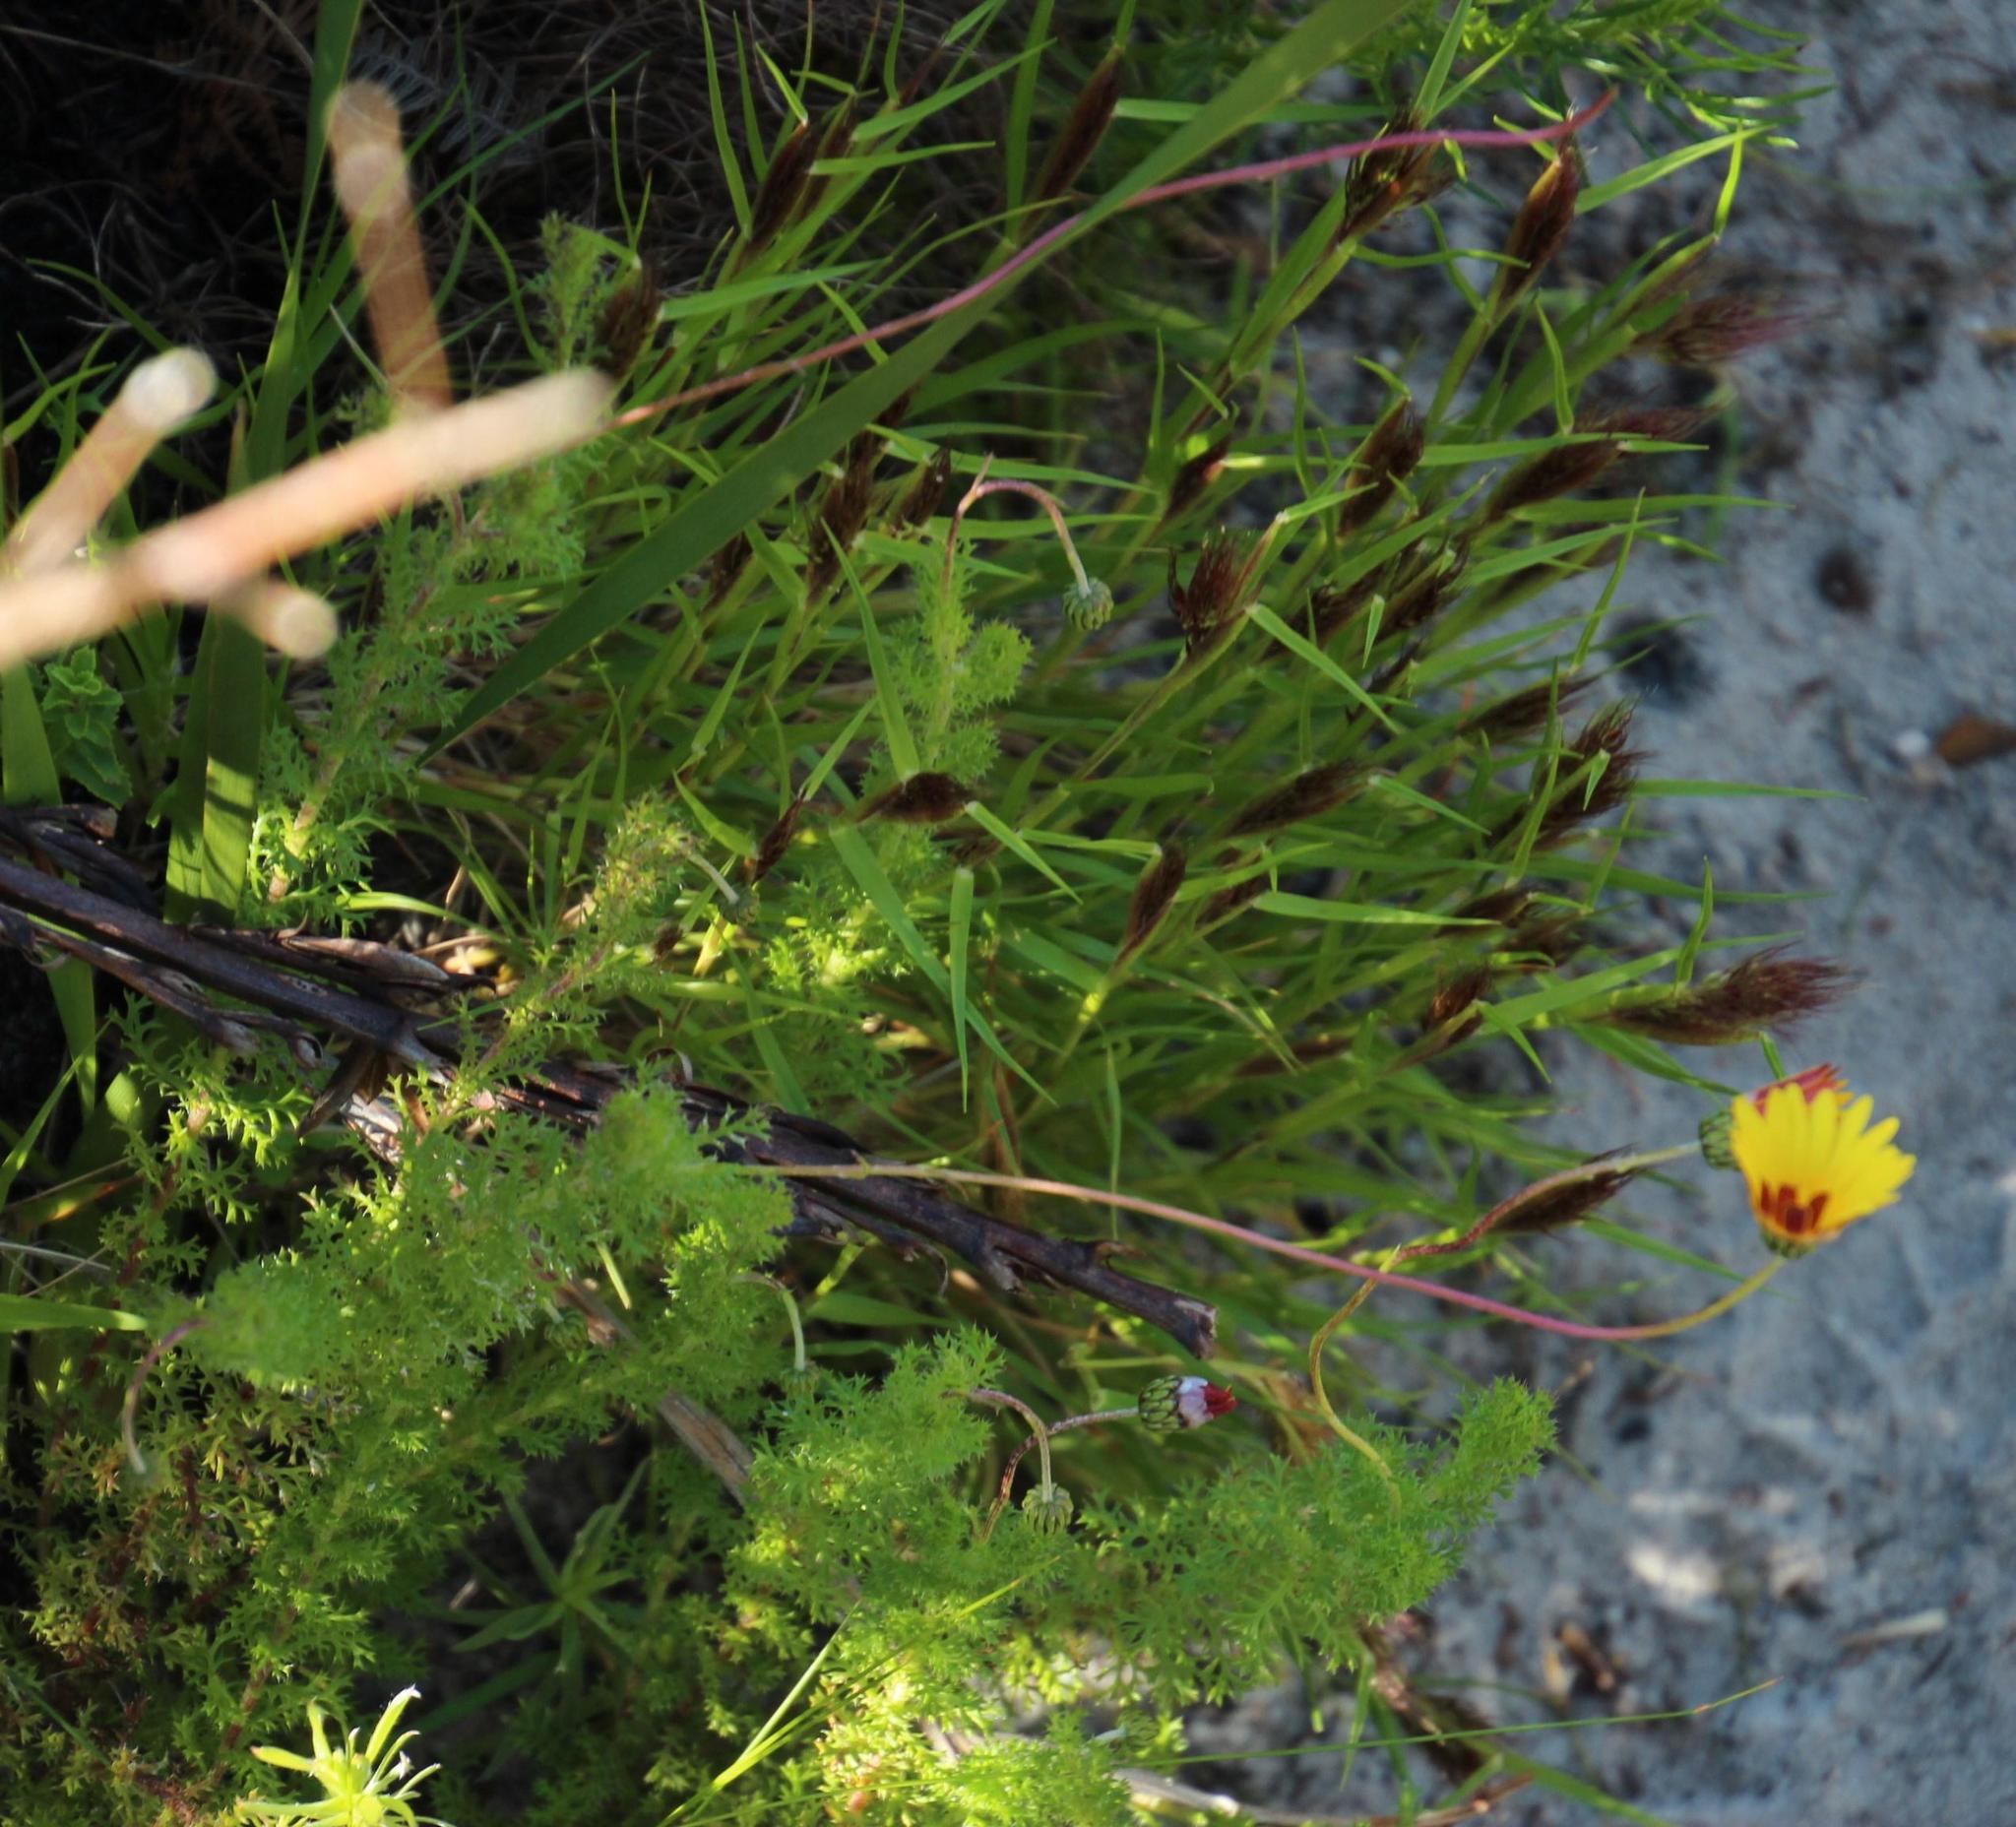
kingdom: Plantae
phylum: Tracheophyta
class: Magnoliopsida
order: Asterales
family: Asteraceae
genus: Ursinia
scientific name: Ursinia dentata
